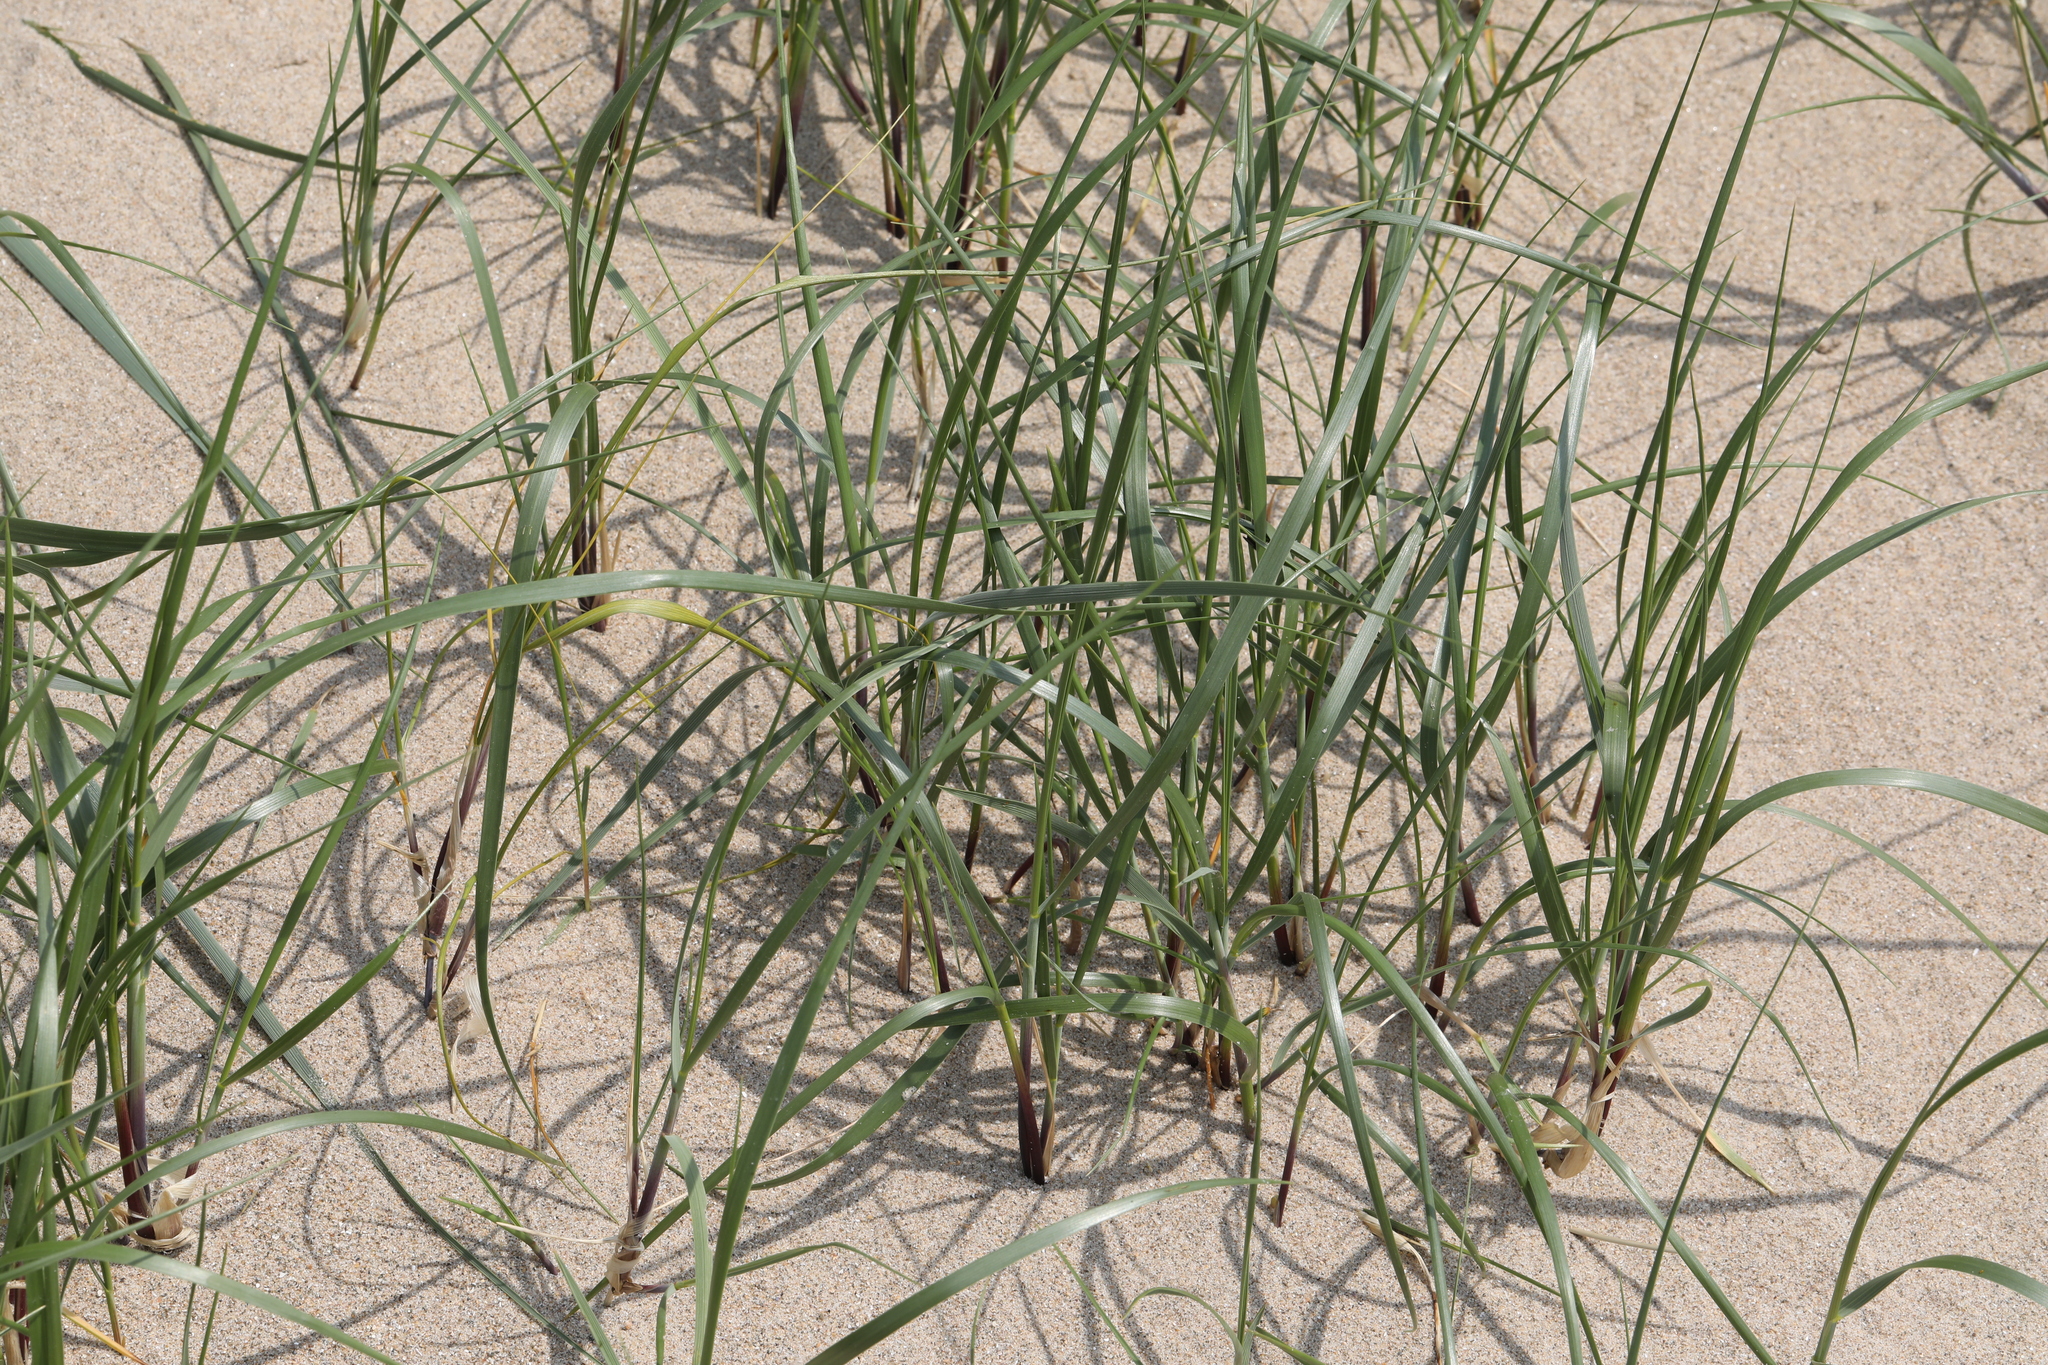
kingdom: Plantae
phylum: Tracheophyta
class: Liliopsida
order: Poales
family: Poaceae
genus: Thinopyrum
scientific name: Thinopyrum junceum
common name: Russian wheatgrass
